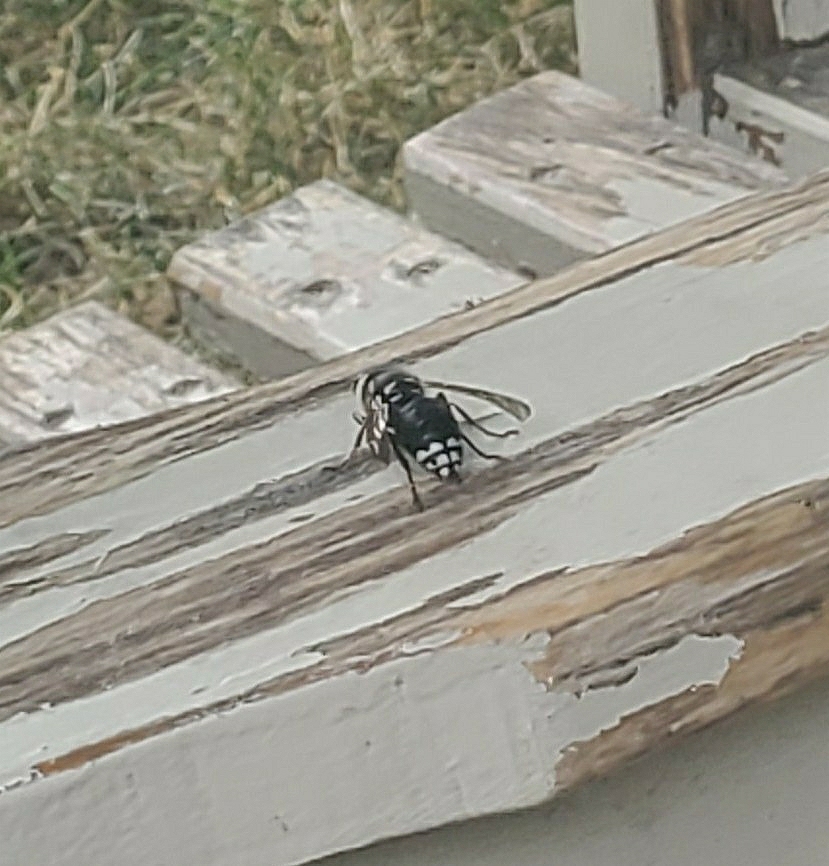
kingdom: Animalia
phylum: Arthropoda
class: Insecta
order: Hymenoptera
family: Vespidae
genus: Dolichovespula
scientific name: Dolichovespula maculata
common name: Bald-faced hornet
